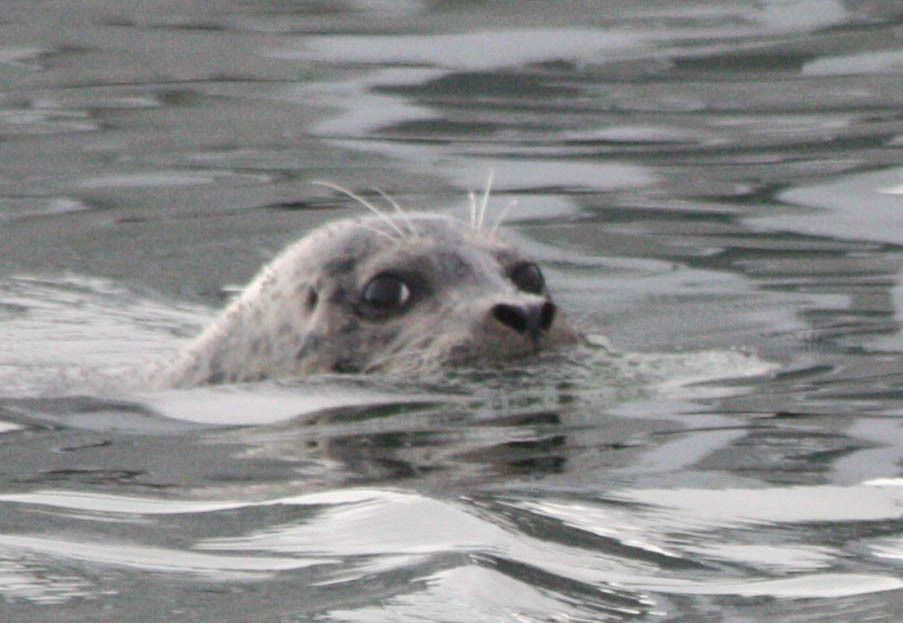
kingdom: Animalia
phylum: Chordata
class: Mammalia
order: Carnivora
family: Phocidae
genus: Phoca
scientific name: Phoca vitulina
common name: Harbor seal
